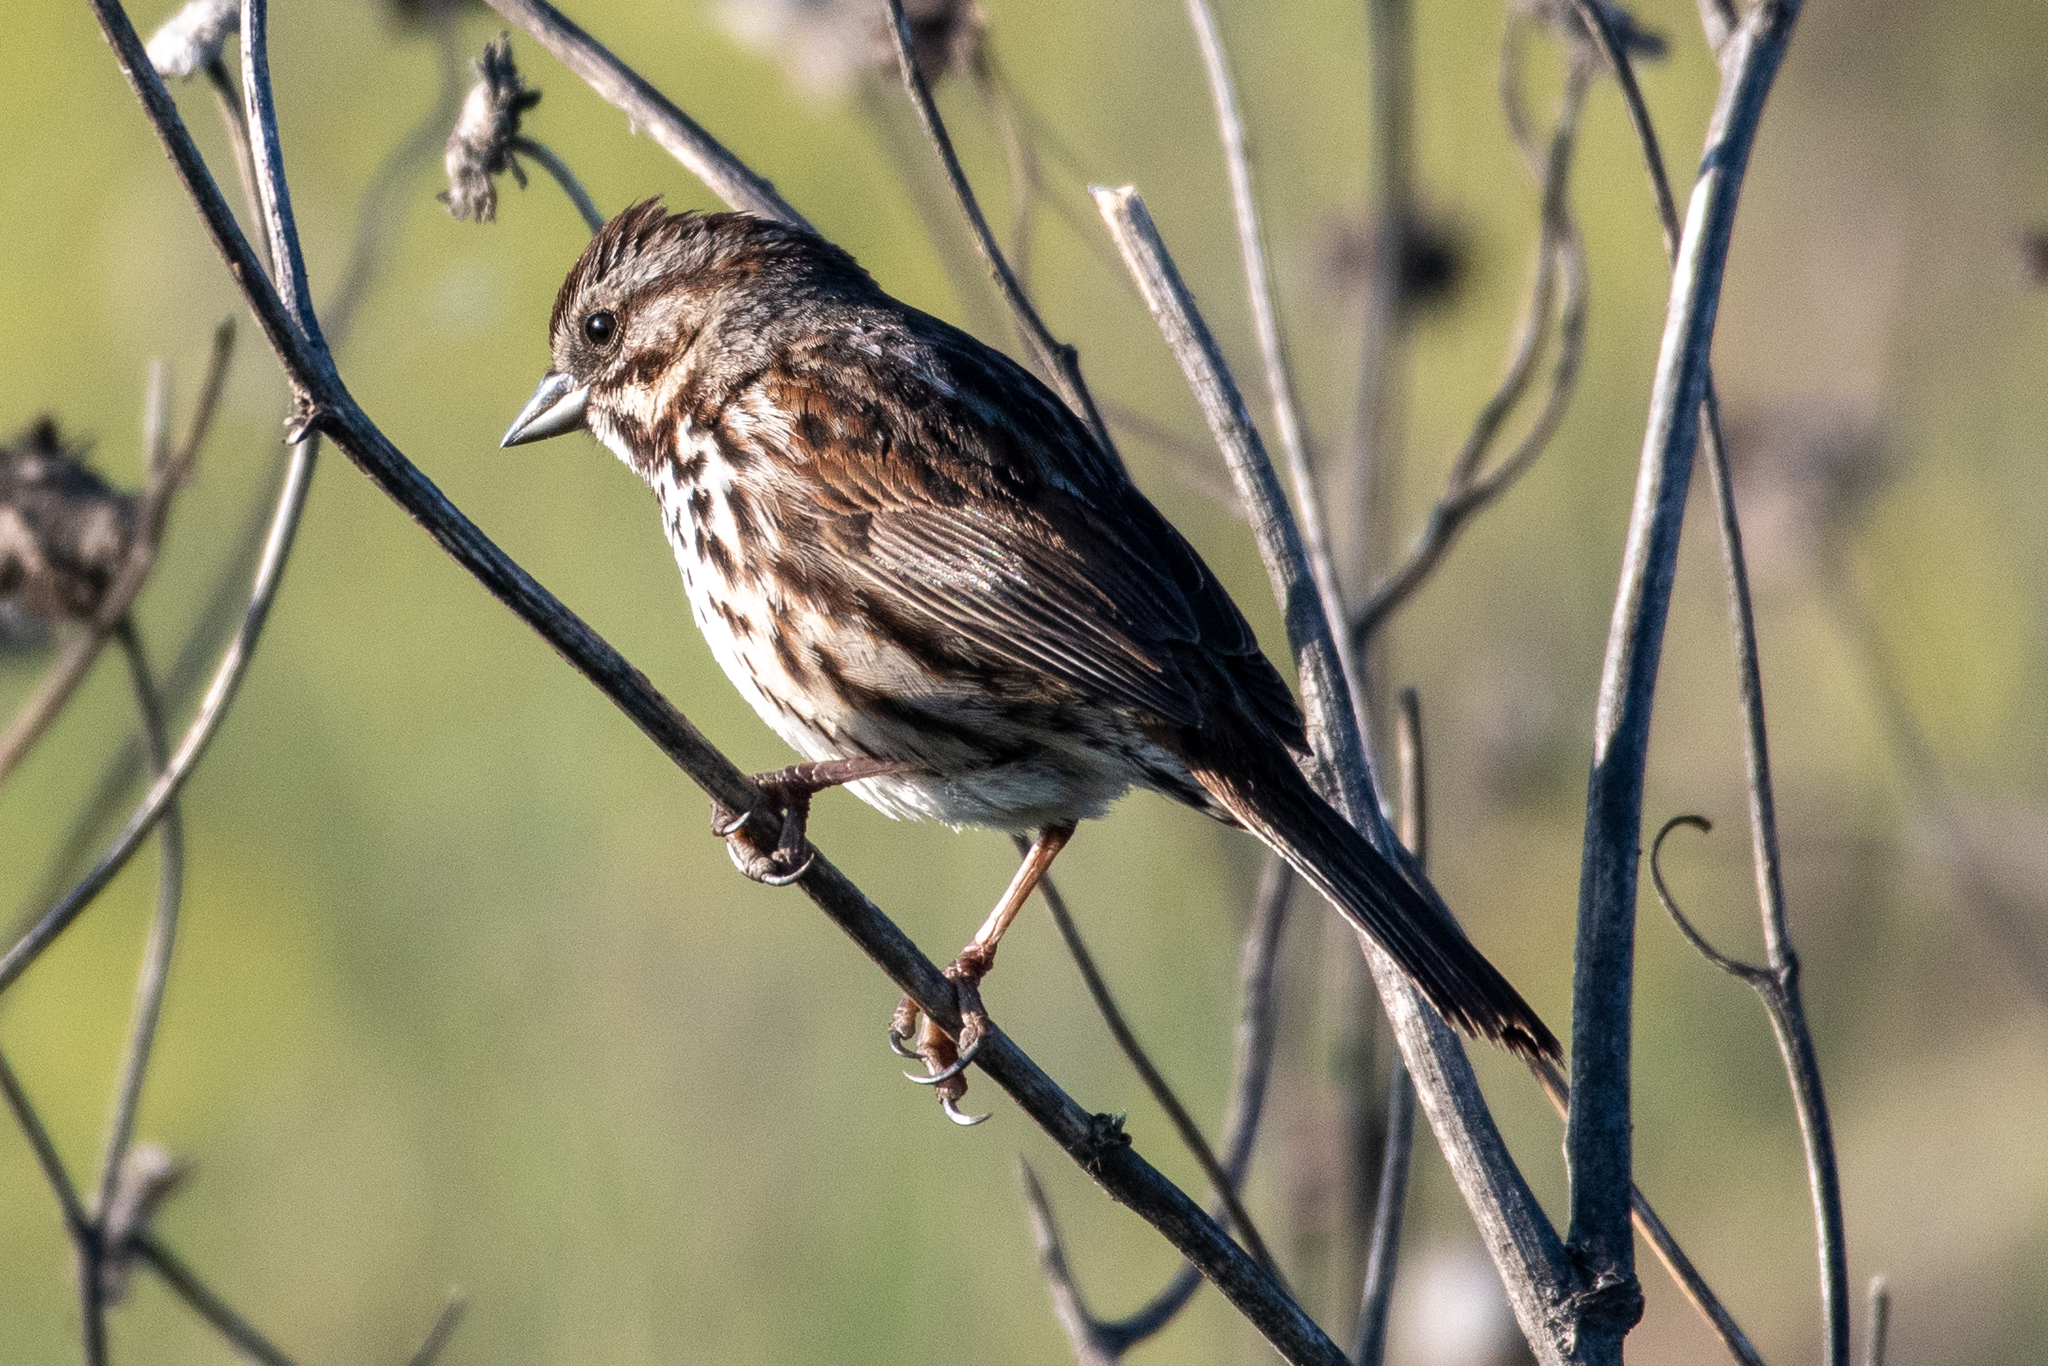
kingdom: Animalia
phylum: Chordata
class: Aves
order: Passeriformes
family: Passerellidae
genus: Melospiza
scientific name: Melospiza melodia
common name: Song sparrow
